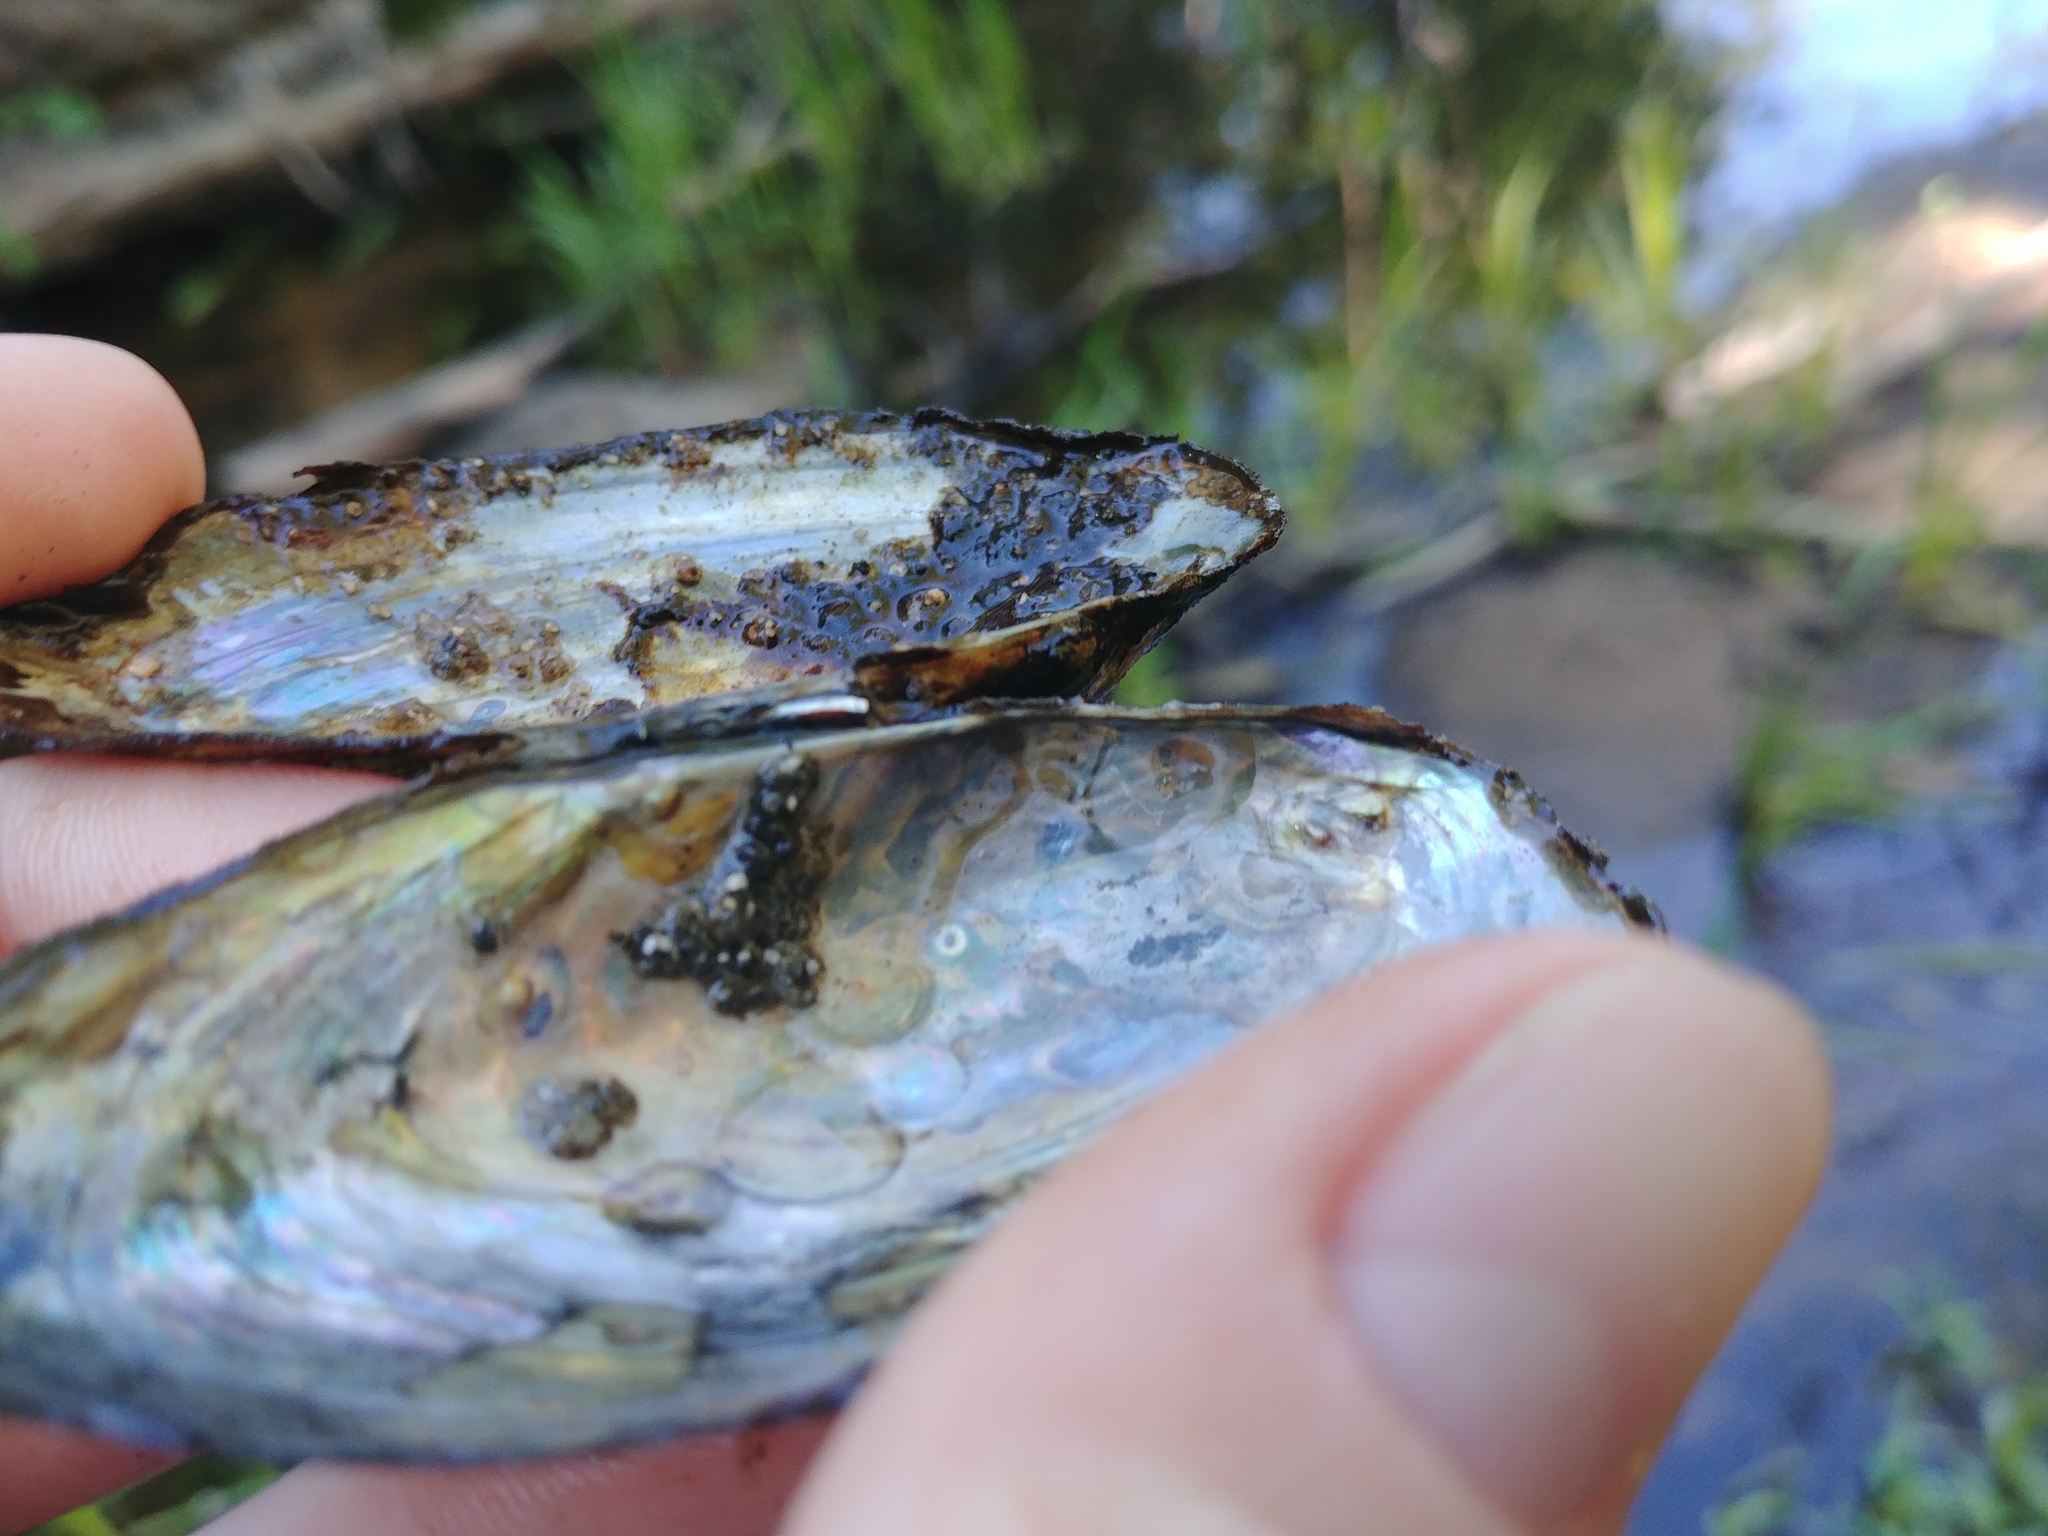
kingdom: Animalia
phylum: Mollusca
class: Bivalvia
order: Unionida
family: Unionidae
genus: Pyganodon
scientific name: Pyganodon cataracta
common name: Eastern floater
